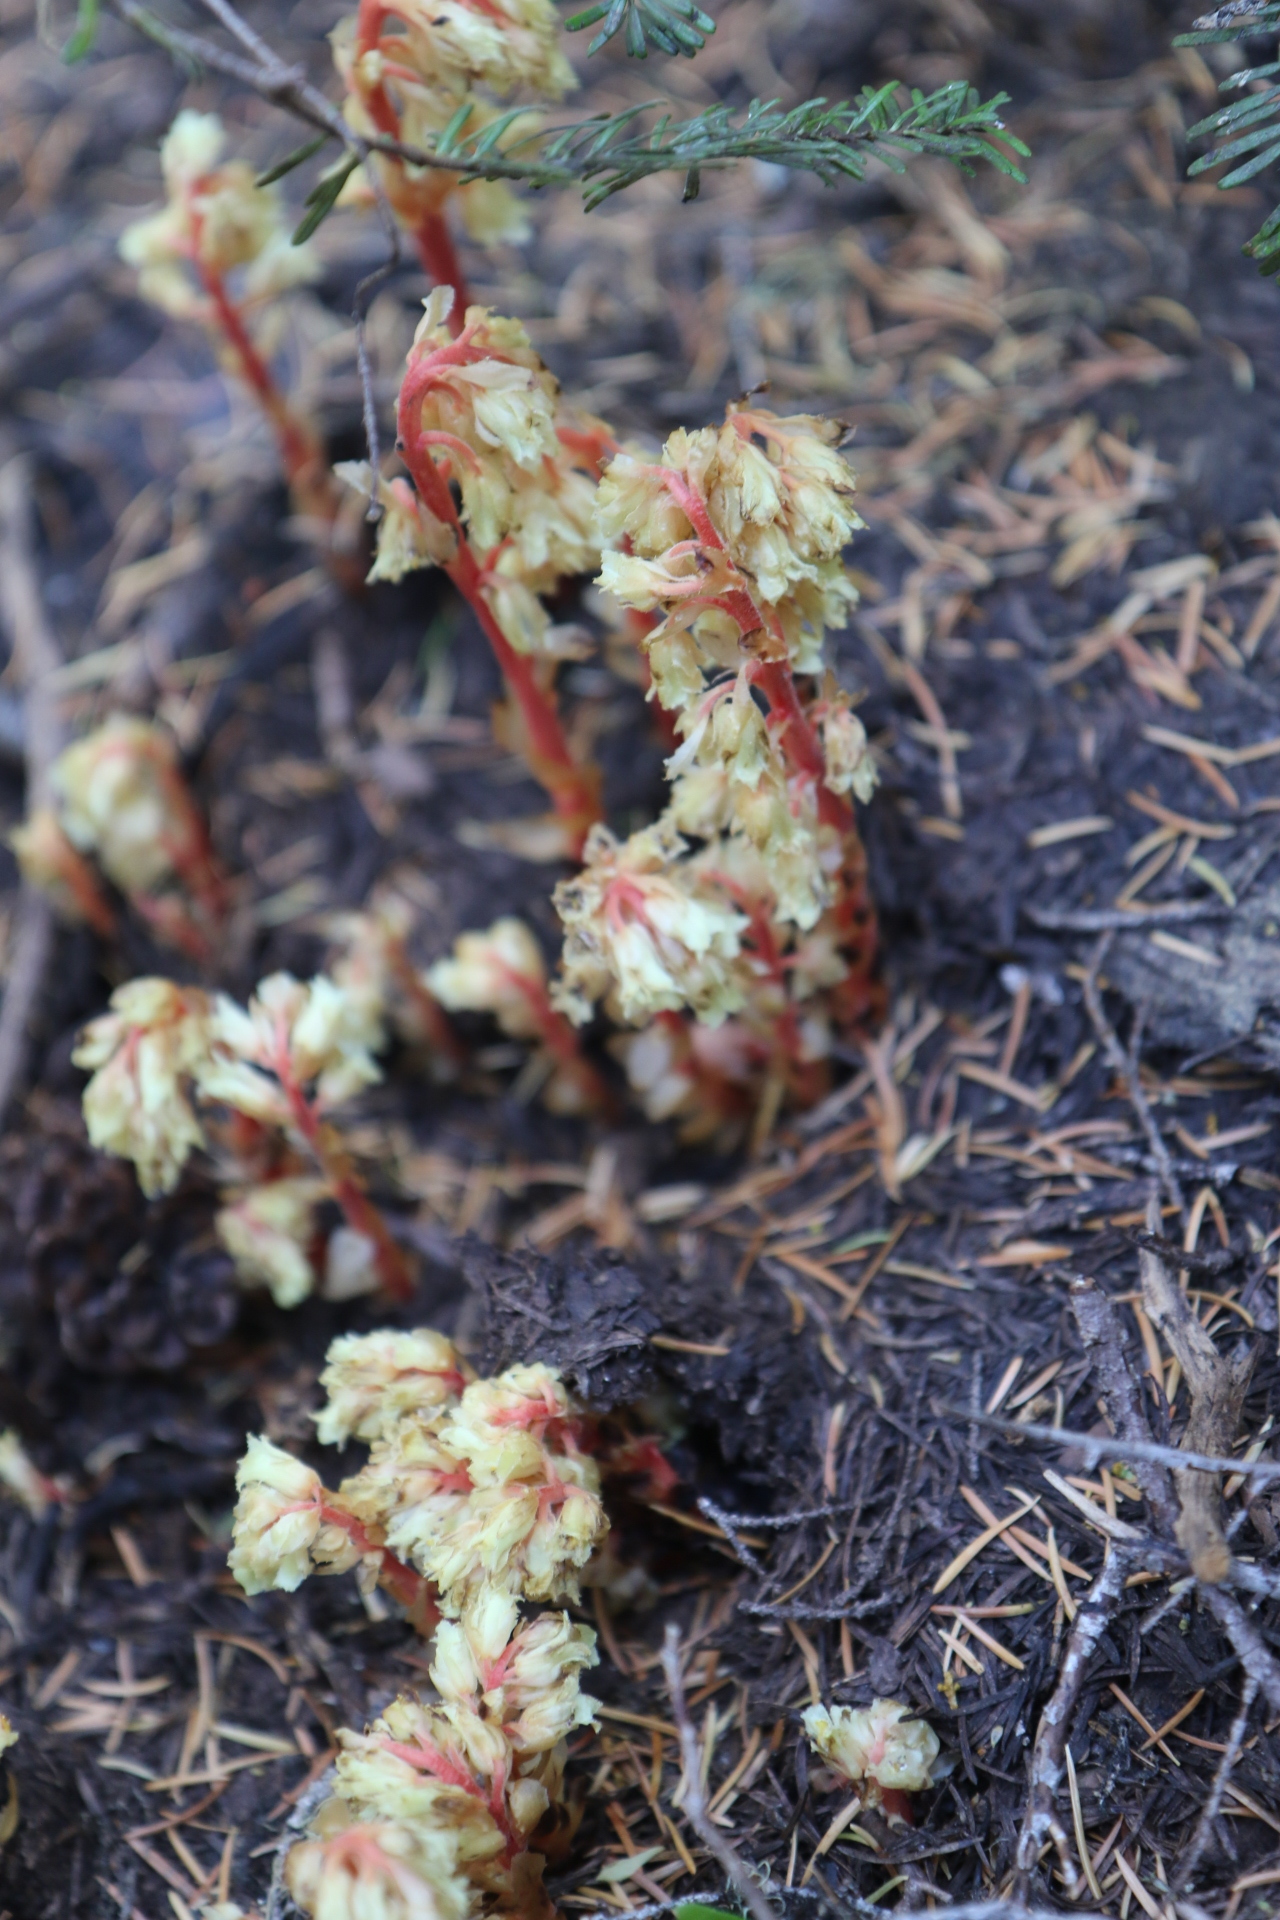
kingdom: Plantae
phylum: Tracheophyta
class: Magnoliopsida
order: Ericales
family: Ericaceae
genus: Hypopitys
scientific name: Hypopitys monotropa
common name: Yellow bird's-nest
